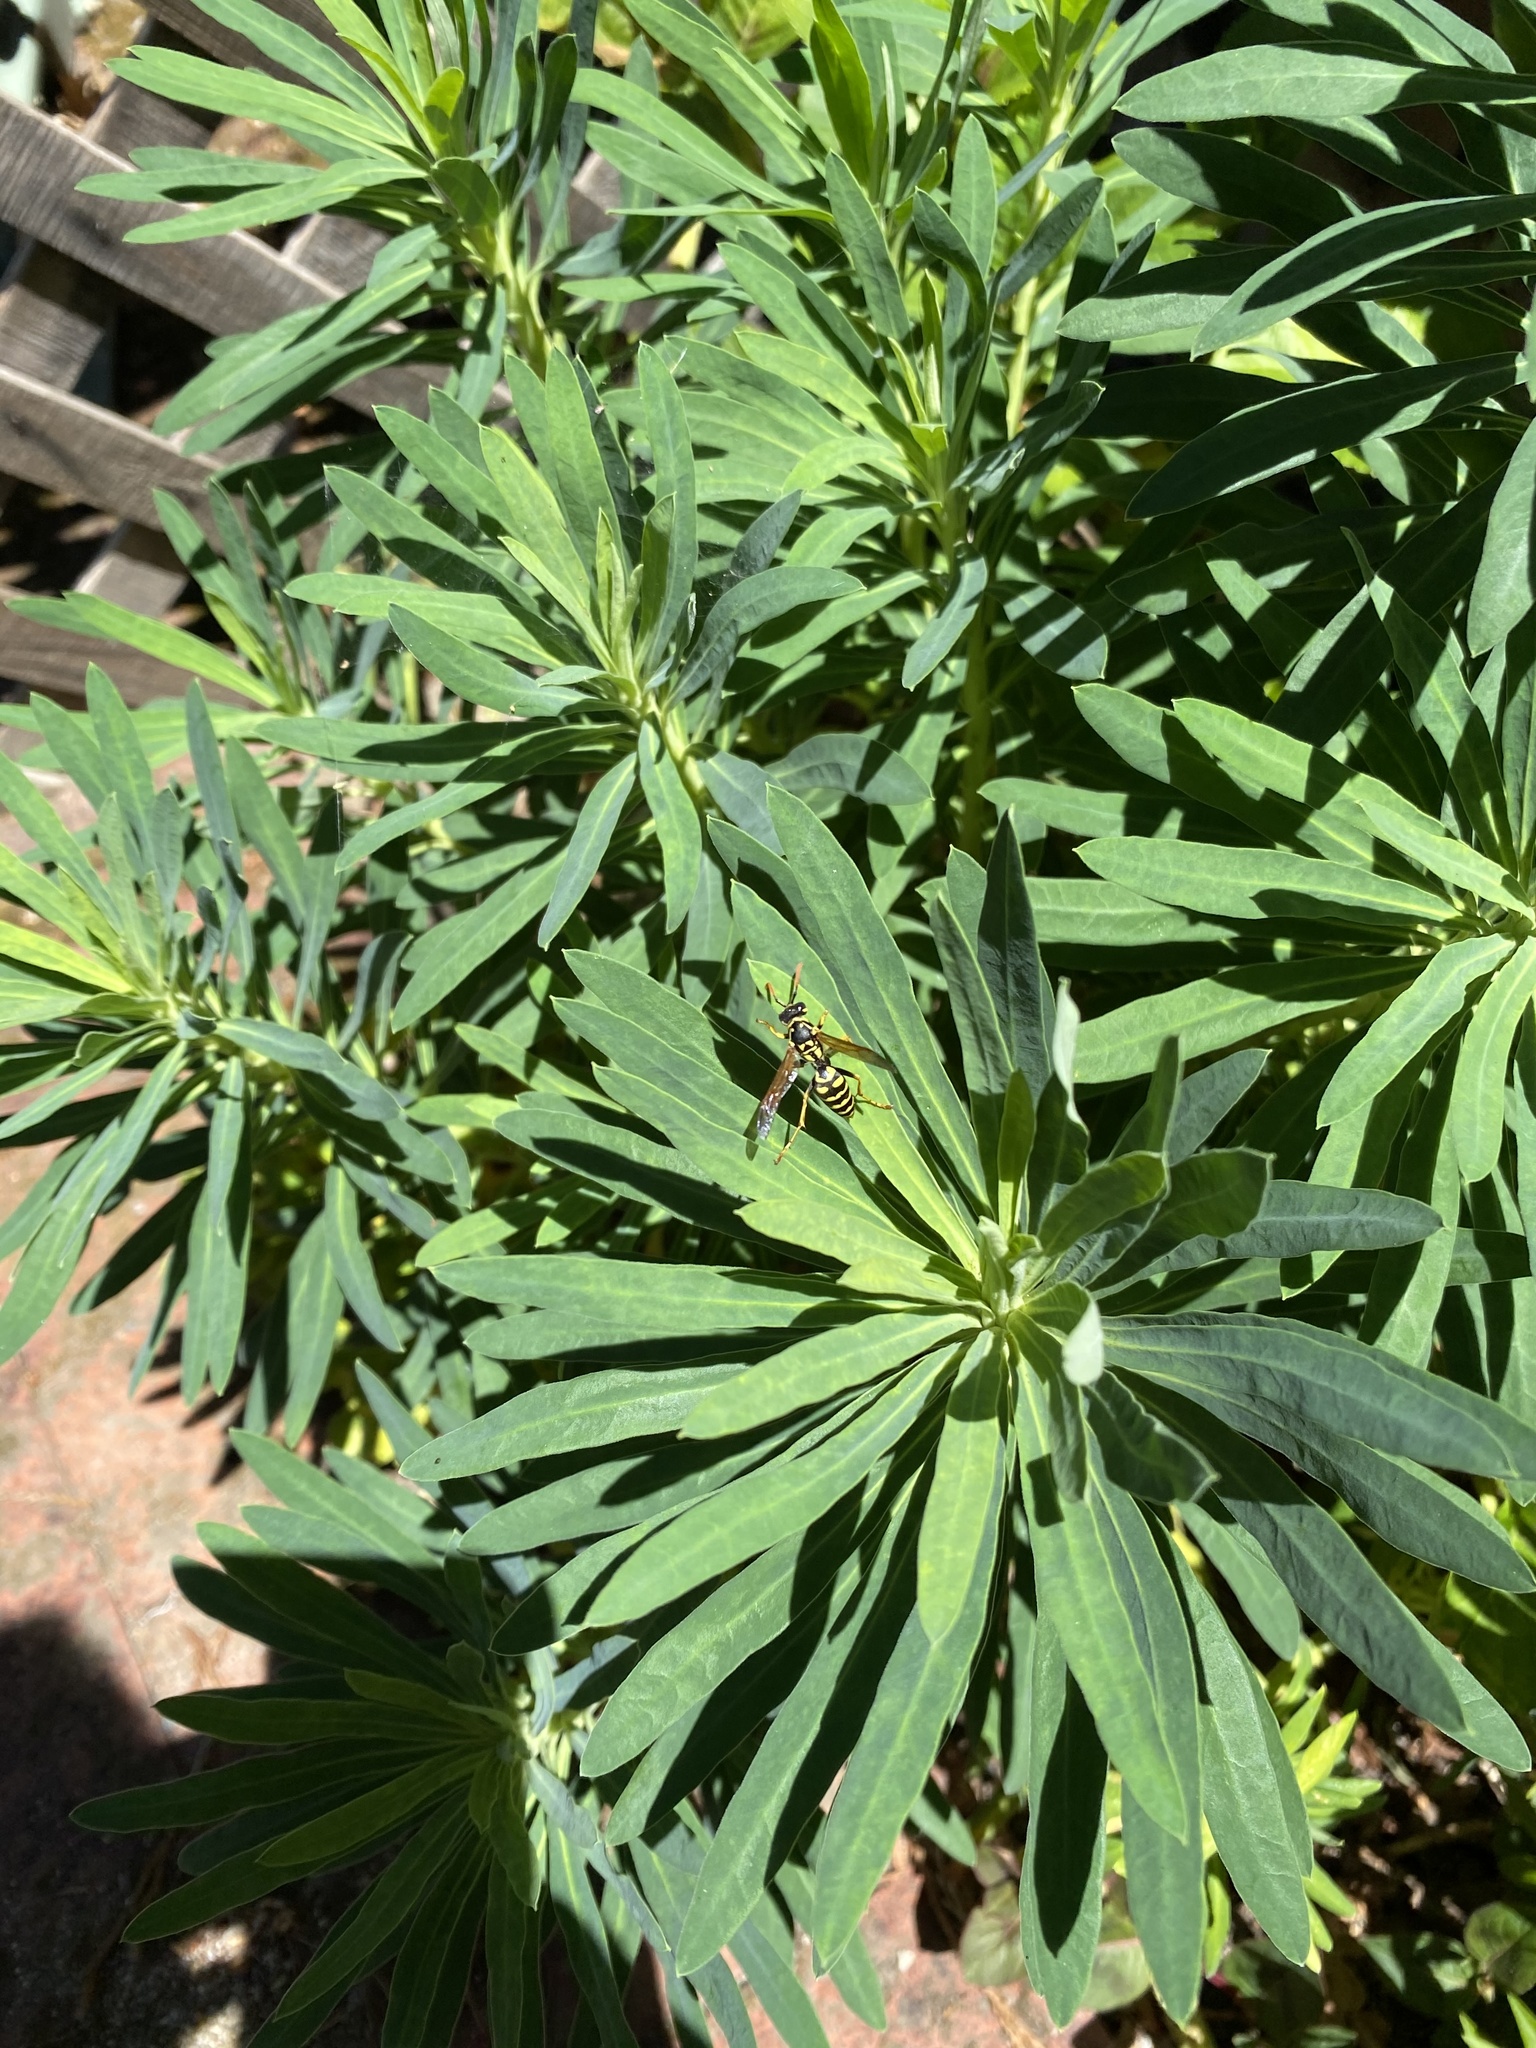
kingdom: Animalia
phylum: Arthropoda
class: Insecta
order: Hymenoptera
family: Eumenidae
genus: Polistes
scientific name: Polistes dominula
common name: Paper wasp
